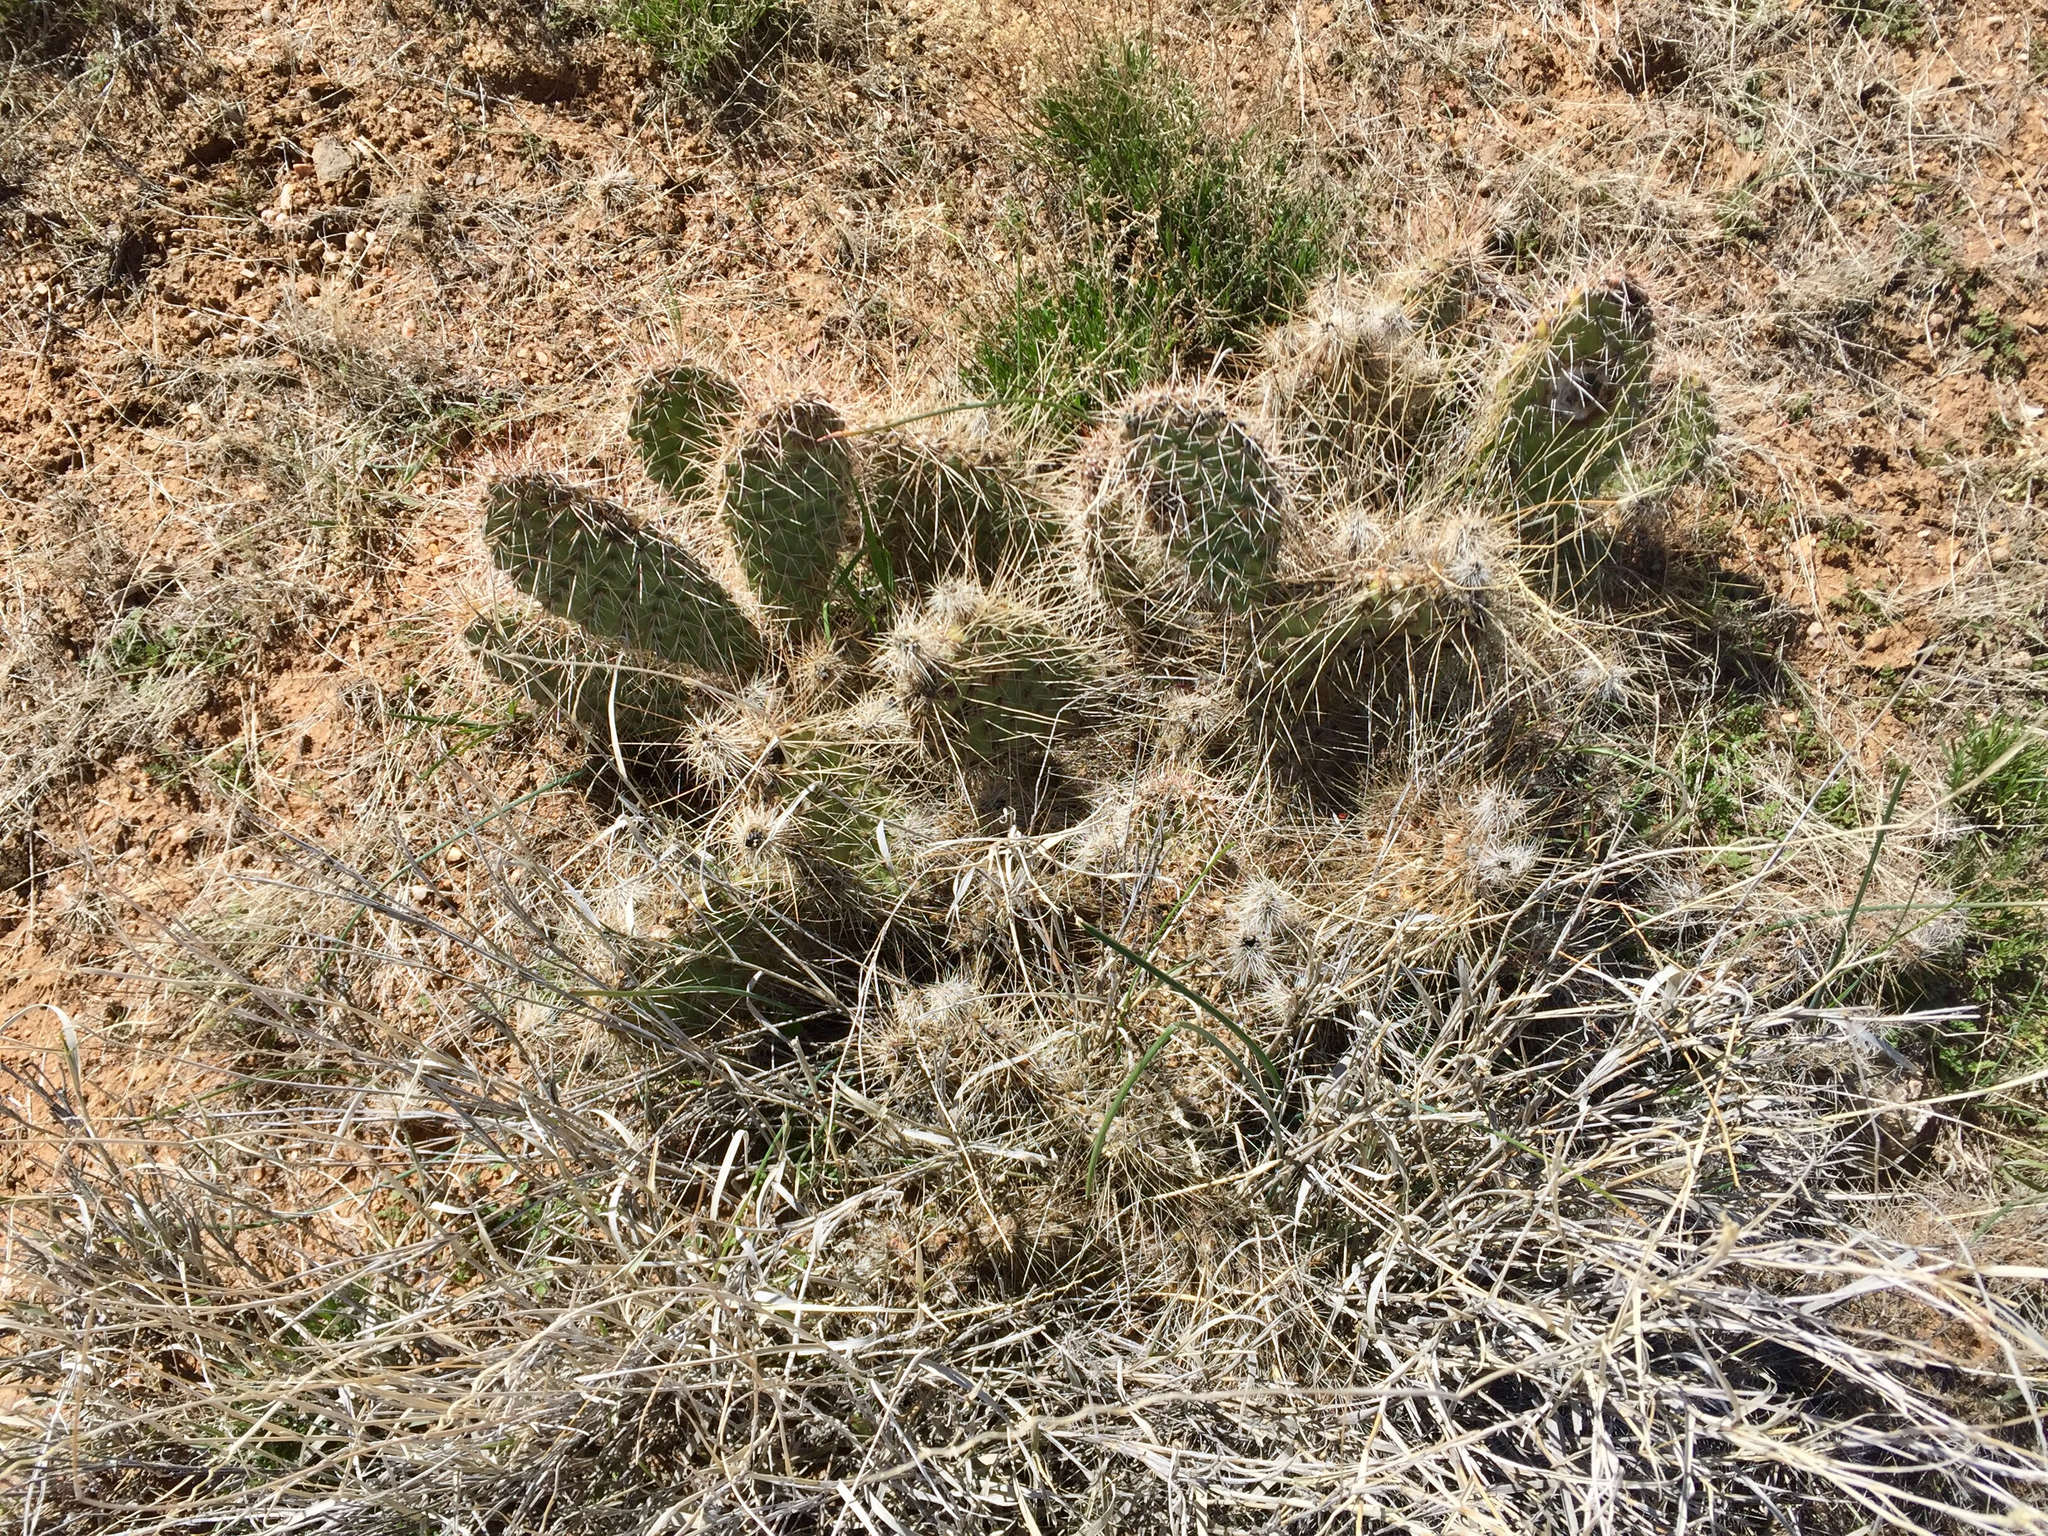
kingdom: Plantae
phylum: Tracheophyta
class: Magnoliopsida
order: Caryophyllales
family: Cactaceae
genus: Opuntia
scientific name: Opuntia polyacantha
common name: Plains prickly-pear
